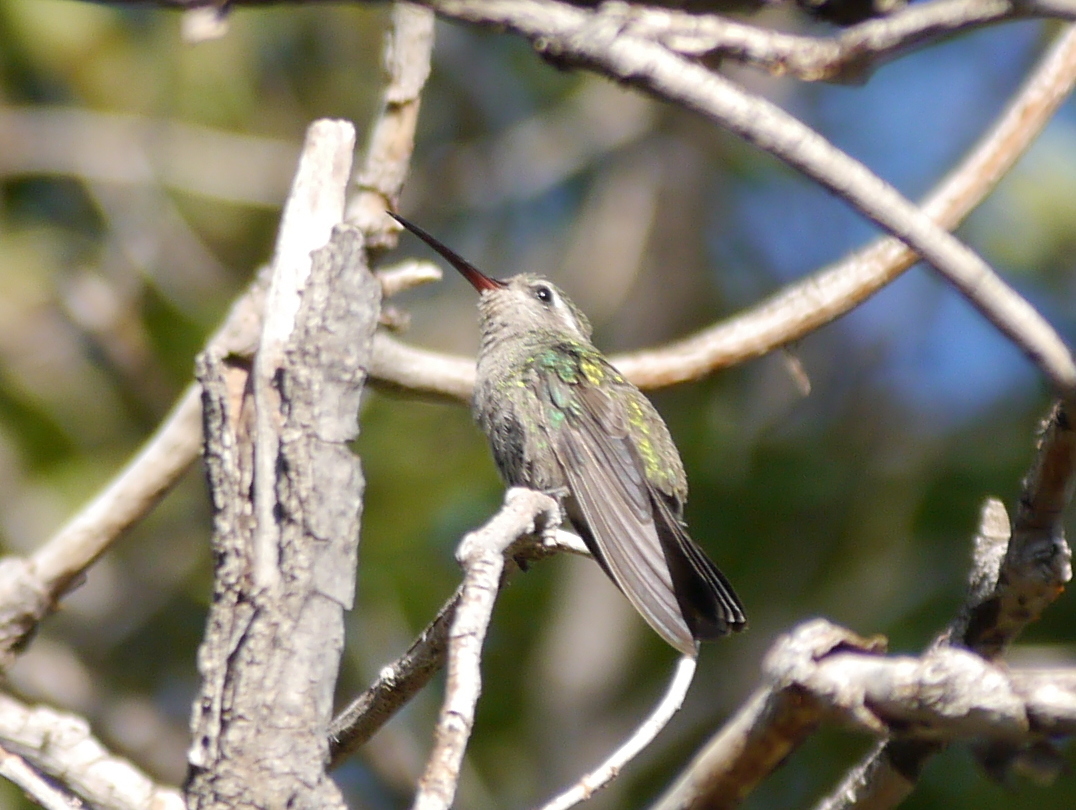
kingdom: Animalia
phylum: Chordata
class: Aves
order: Apodiformes
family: Trochilidae
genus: Cynanthus
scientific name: Cynanthus latirostris
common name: Broad-billed hummingbird
